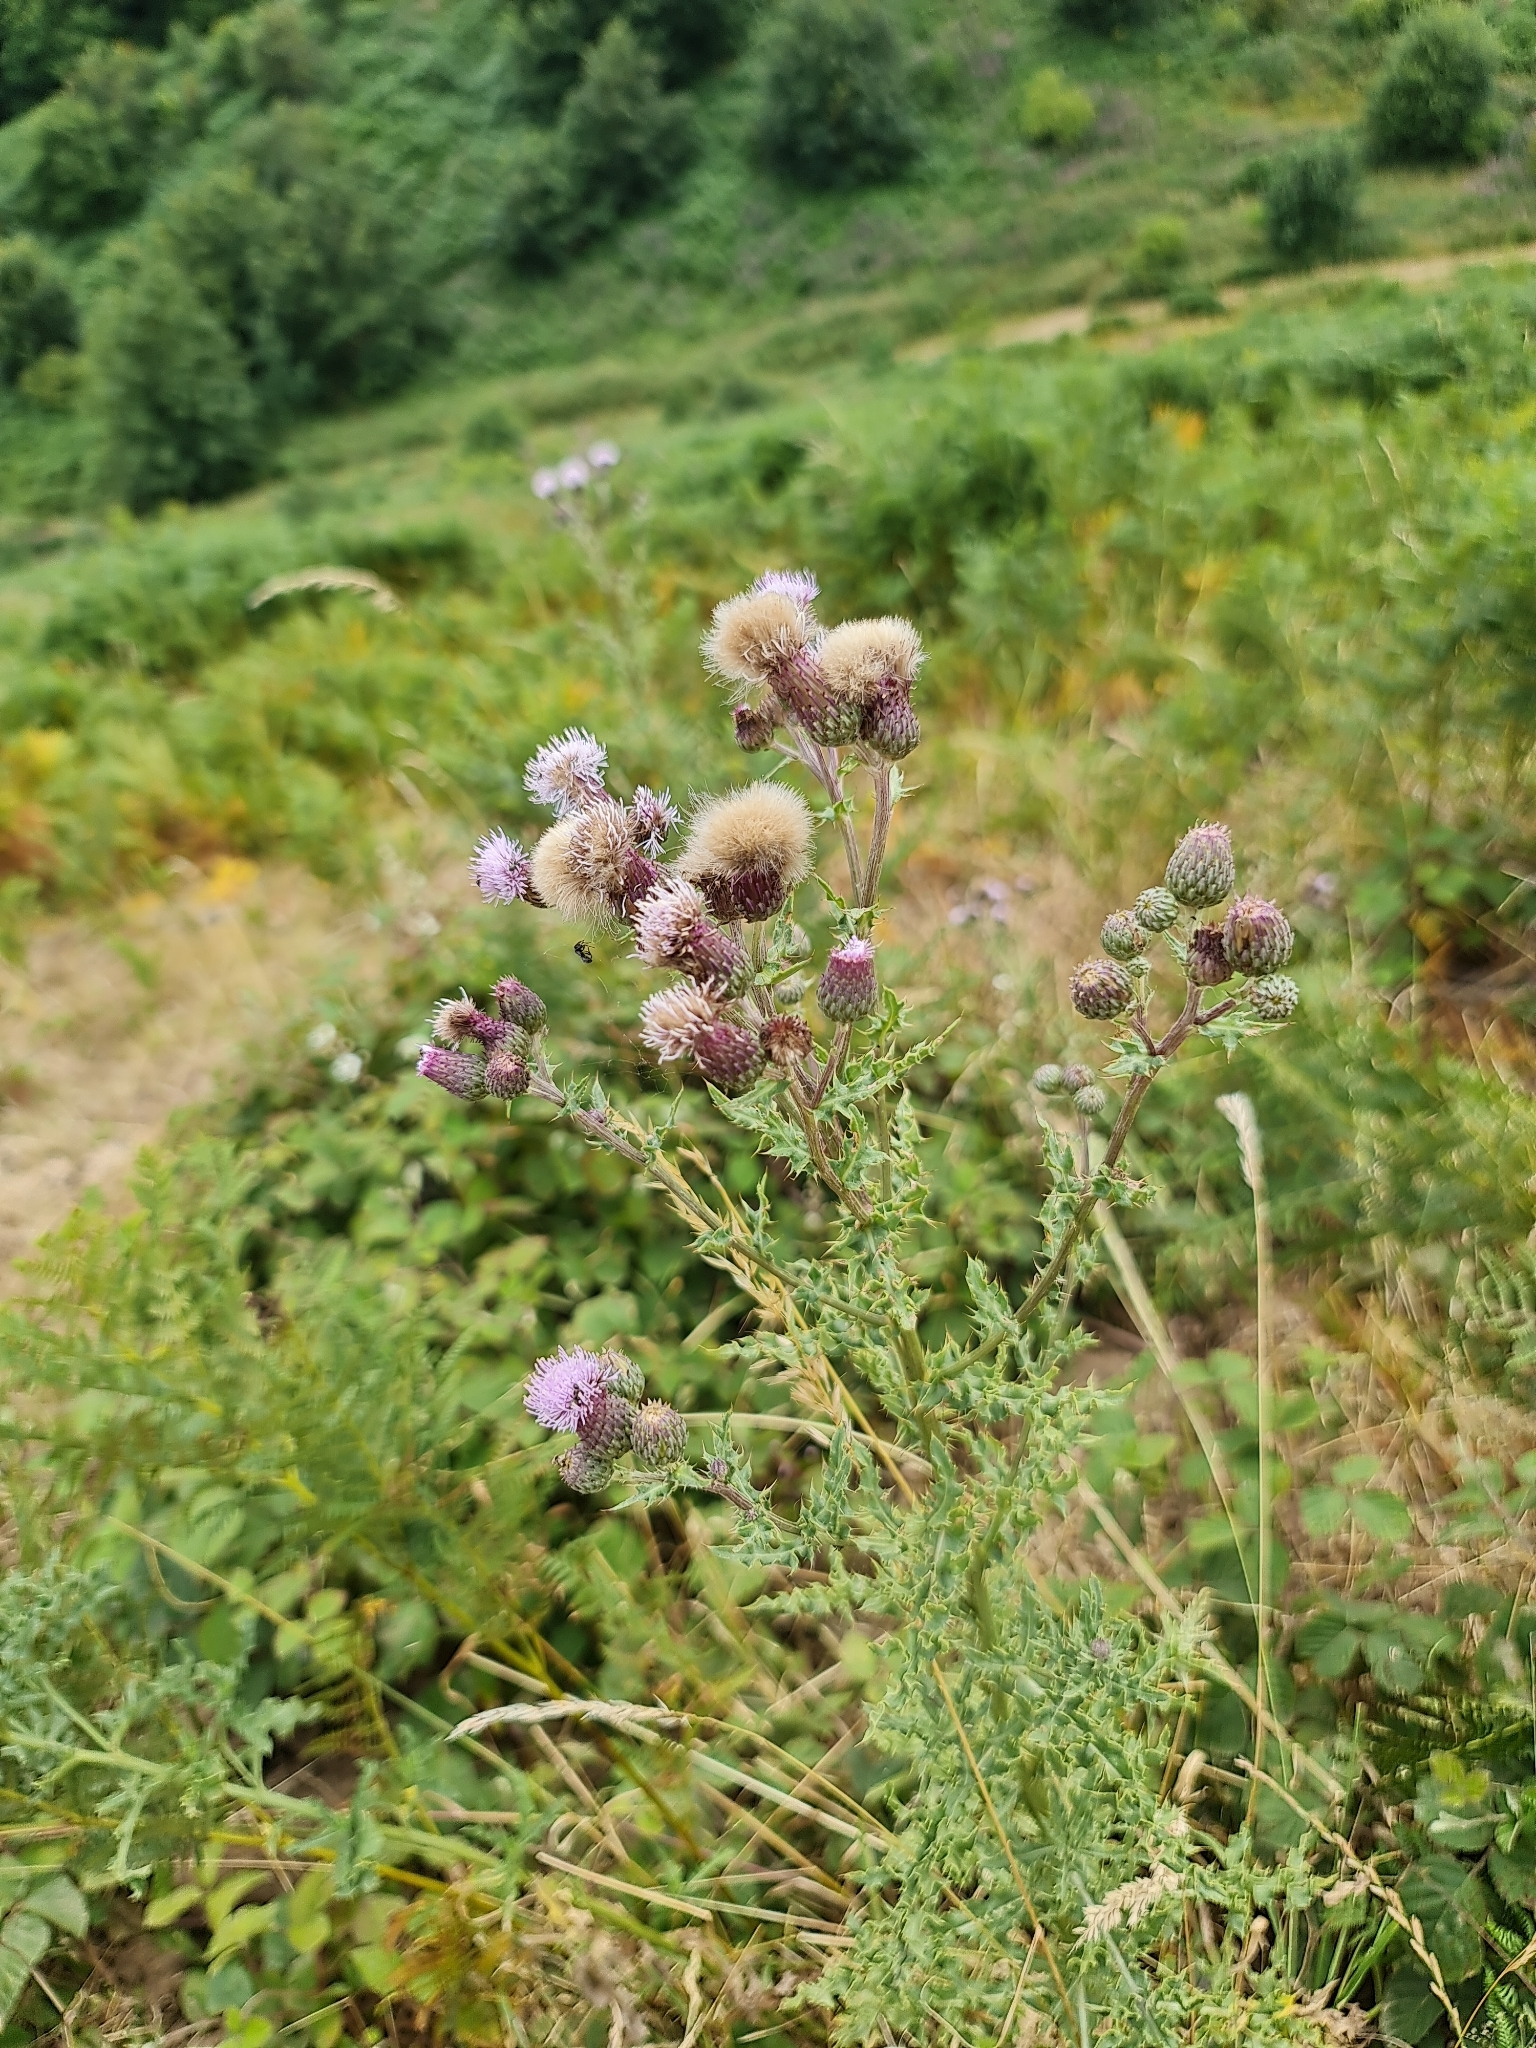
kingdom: Plantae
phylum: Tracheophyta
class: Magnoliopsida
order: Asterales
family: Asteraceae
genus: Cirsium
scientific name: Cirsium arvense
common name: Creeping thistle
